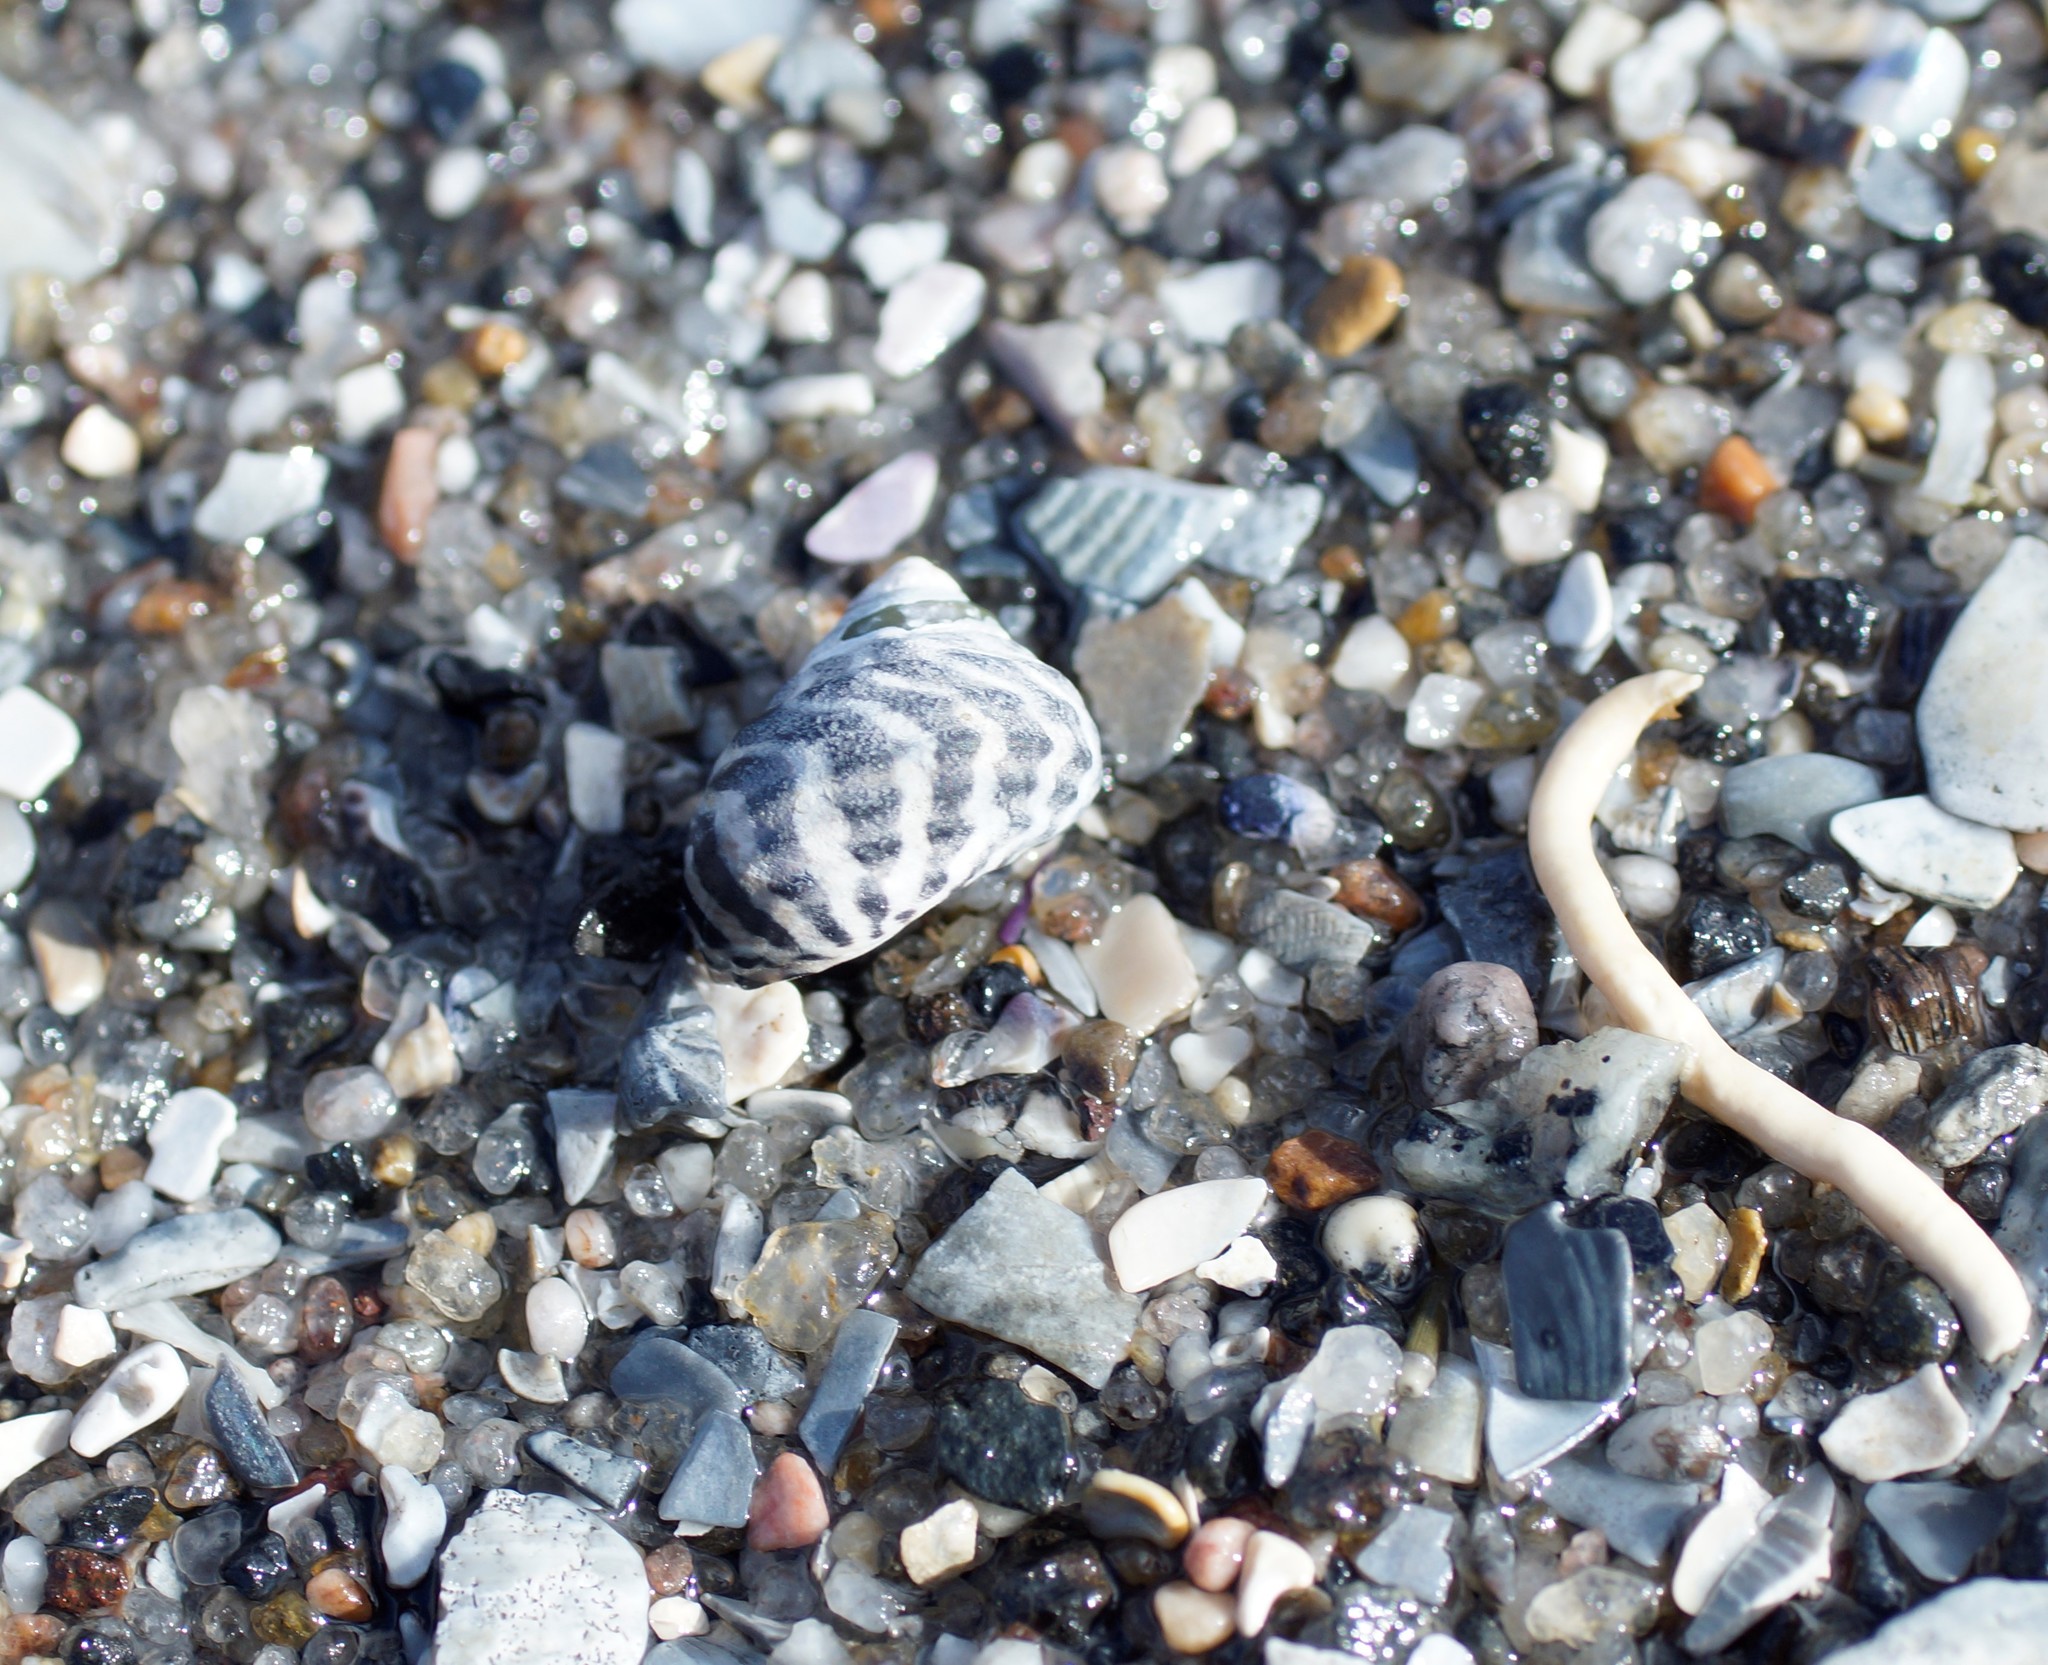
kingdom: Animalia
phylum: Mollusca
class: Gastropoda
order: Trochida
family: Trochidae
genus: Austrocochlea
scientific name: Austrocochlea porcata
